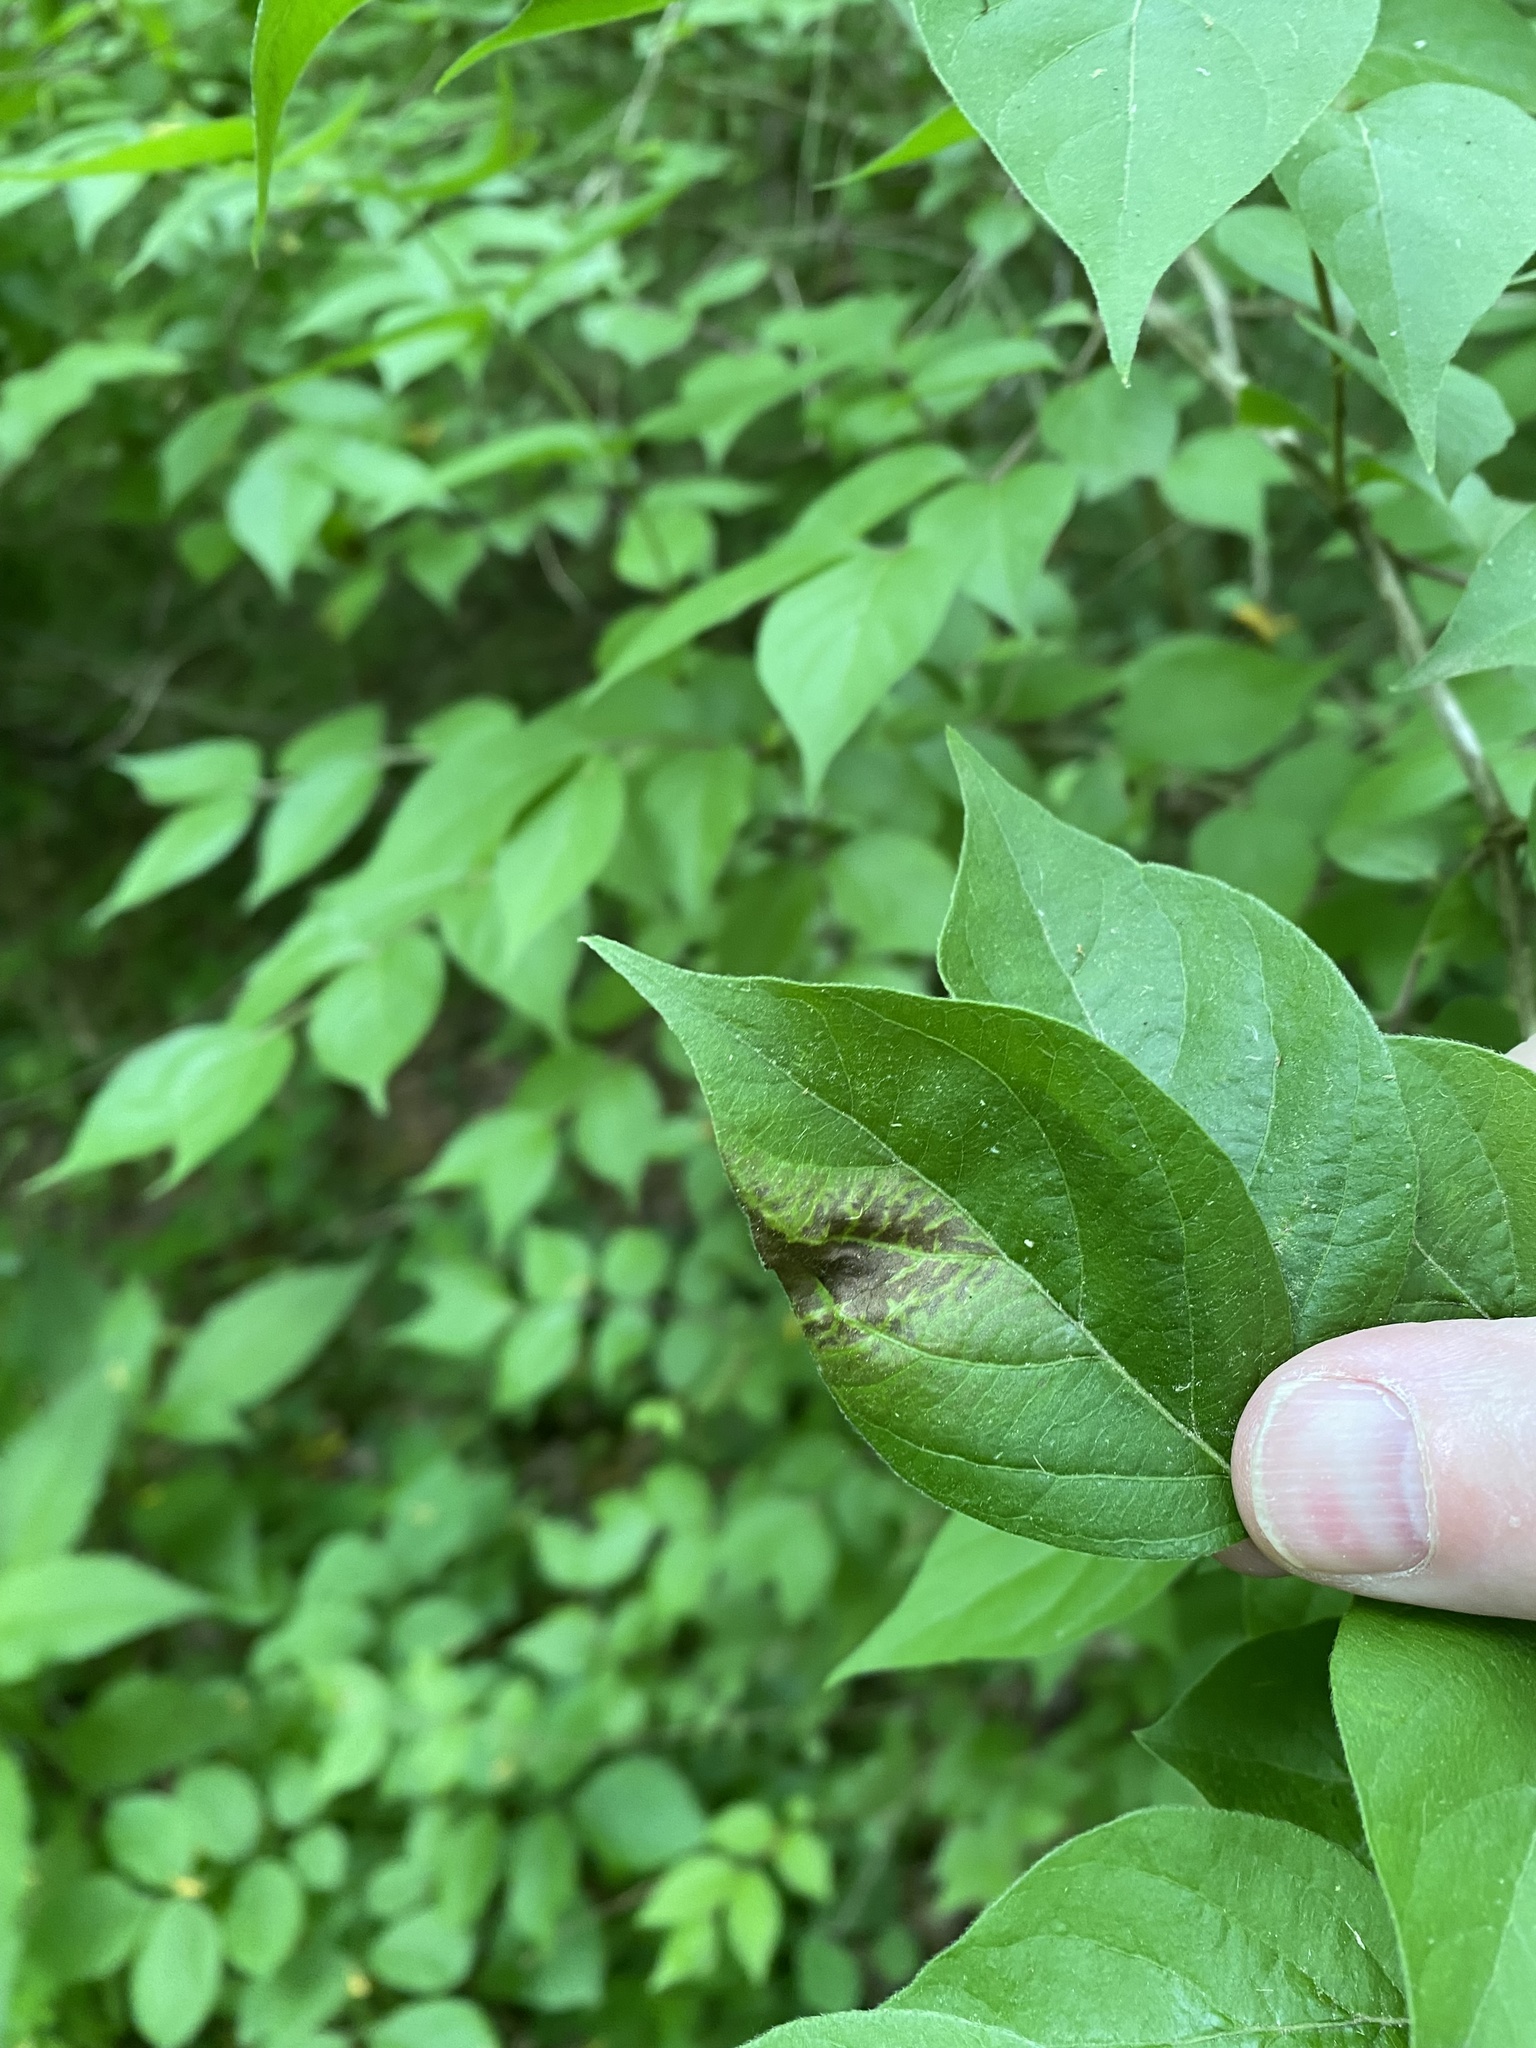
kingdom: Fungi
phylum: Basidiomycota
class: Pucciniomycetes
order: Platygloeales
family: Platygloeaceae
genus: Insolibasidium
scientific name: Insolibasidium deformans
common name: Honeysuckle leaf blight
